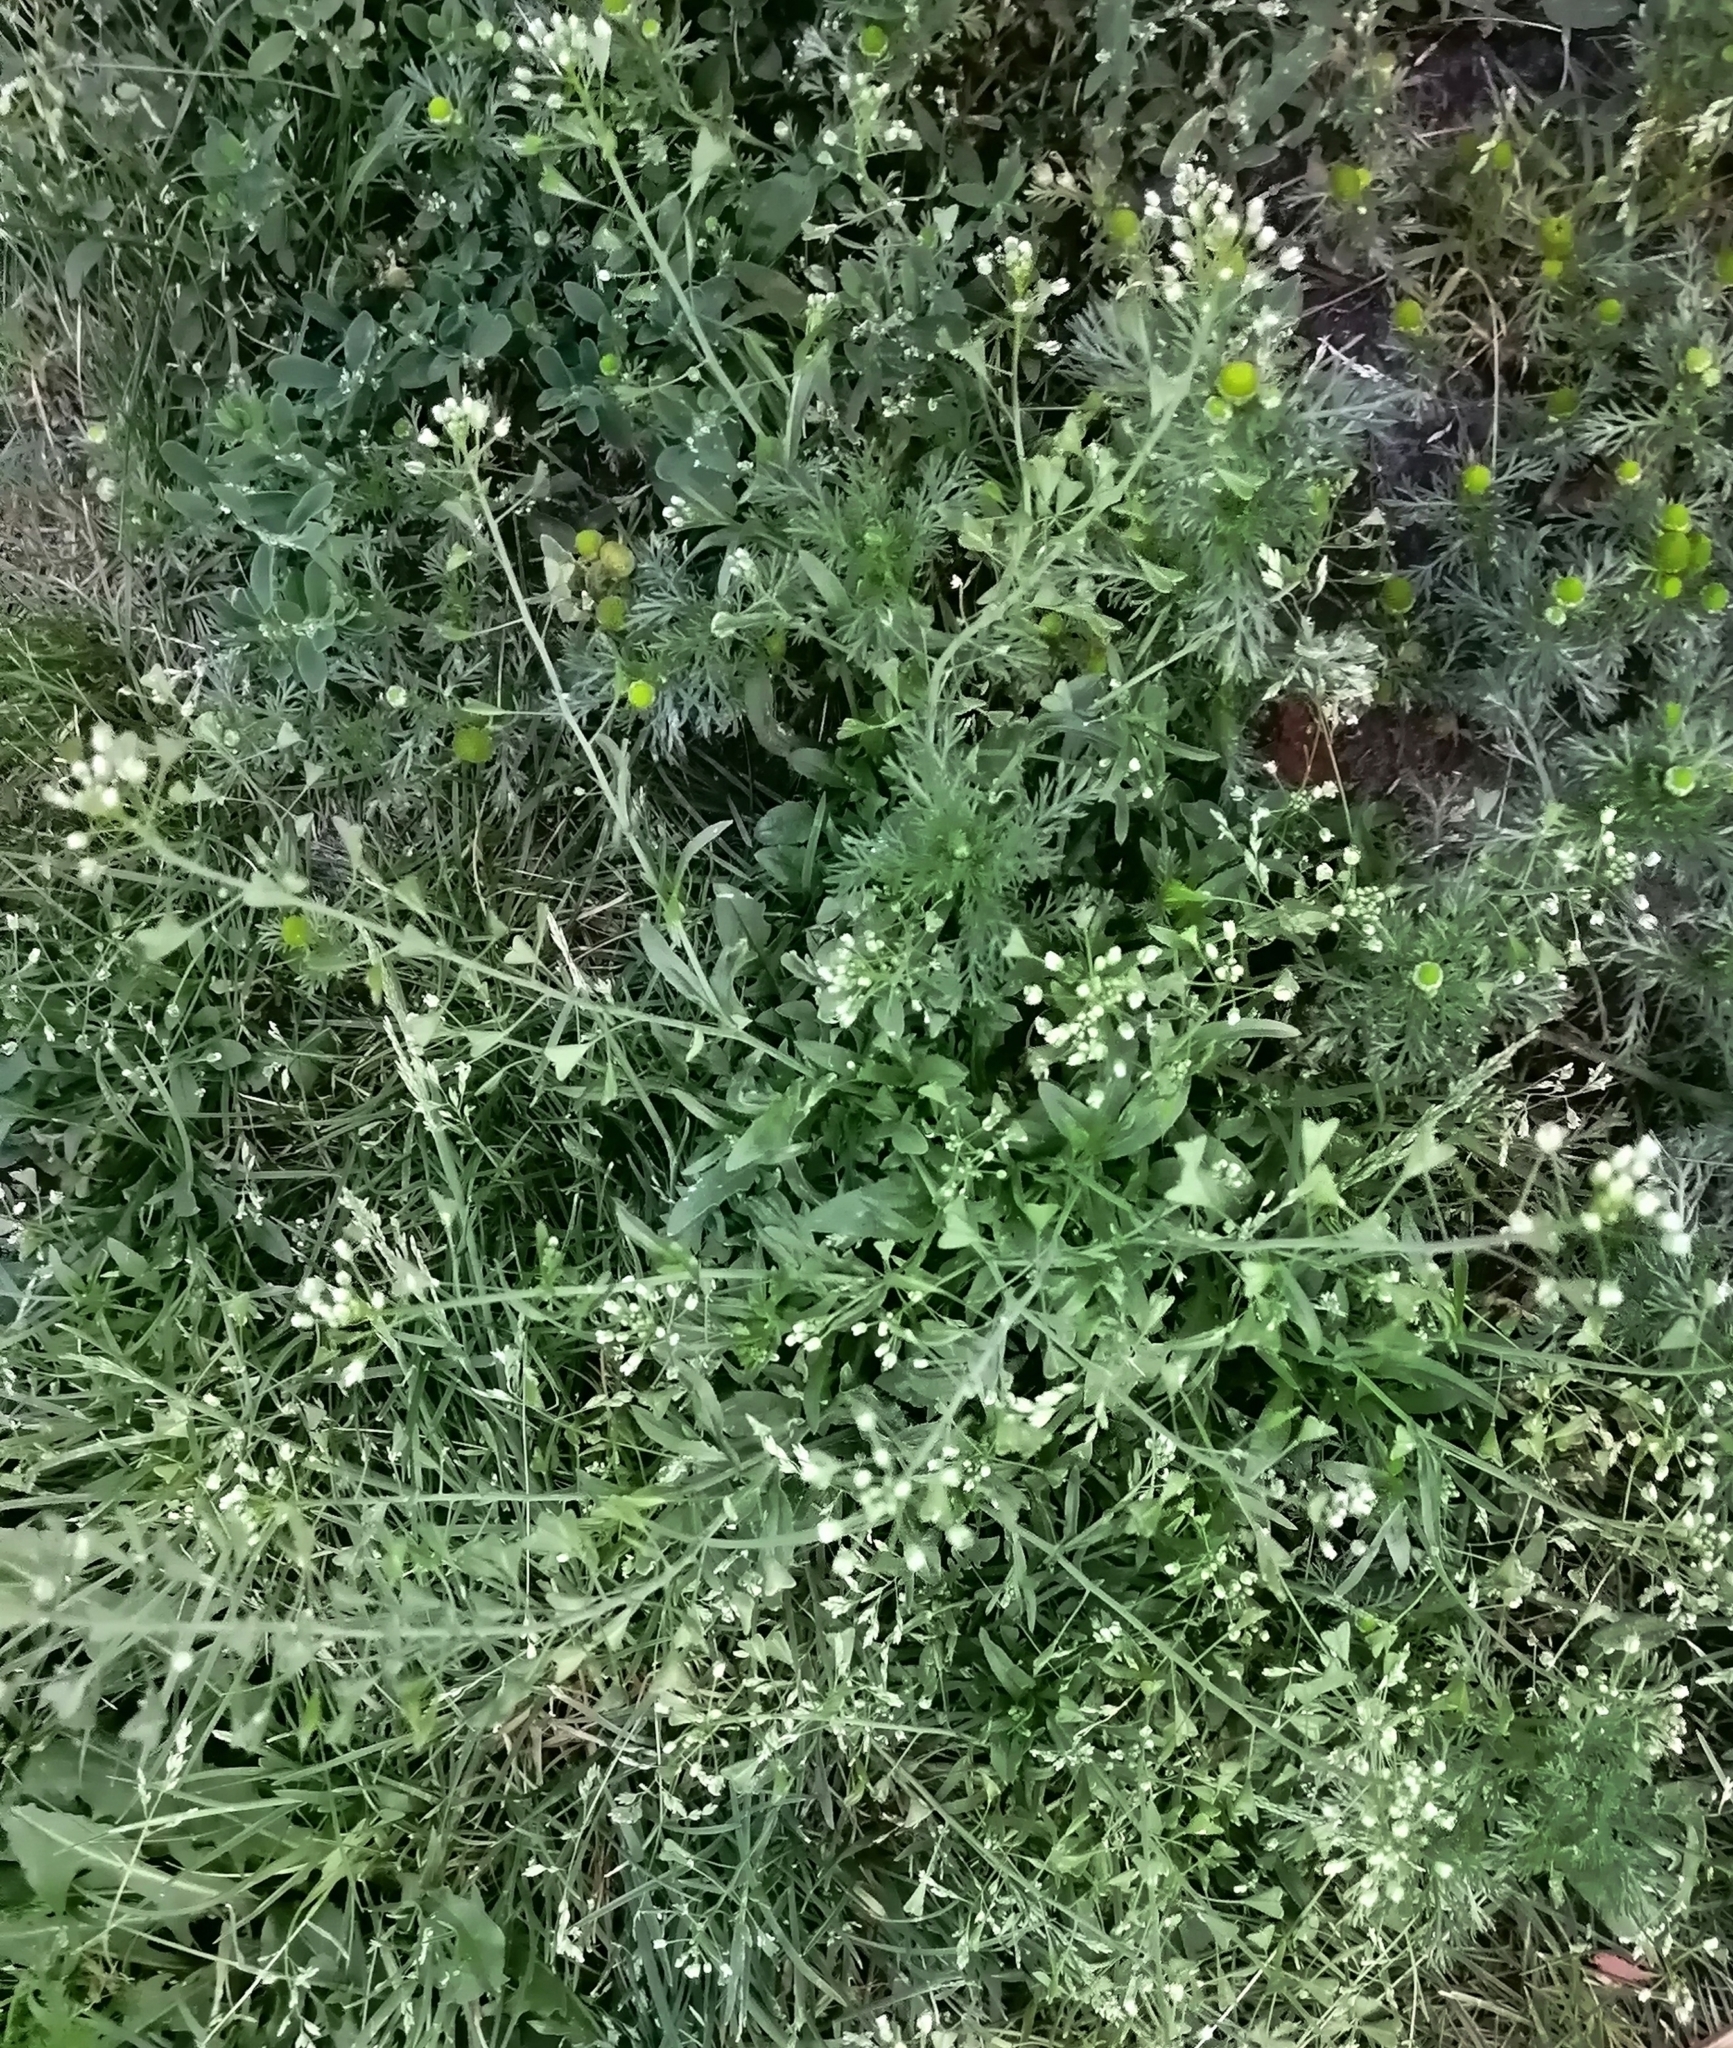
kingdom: Plantae
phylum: Tracheophyta
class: Magnoliopsida
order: Brassicales
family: Brassicaceae
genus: Capsella
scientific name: Capsella bursa-pastoris
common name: Shepherd's purse
